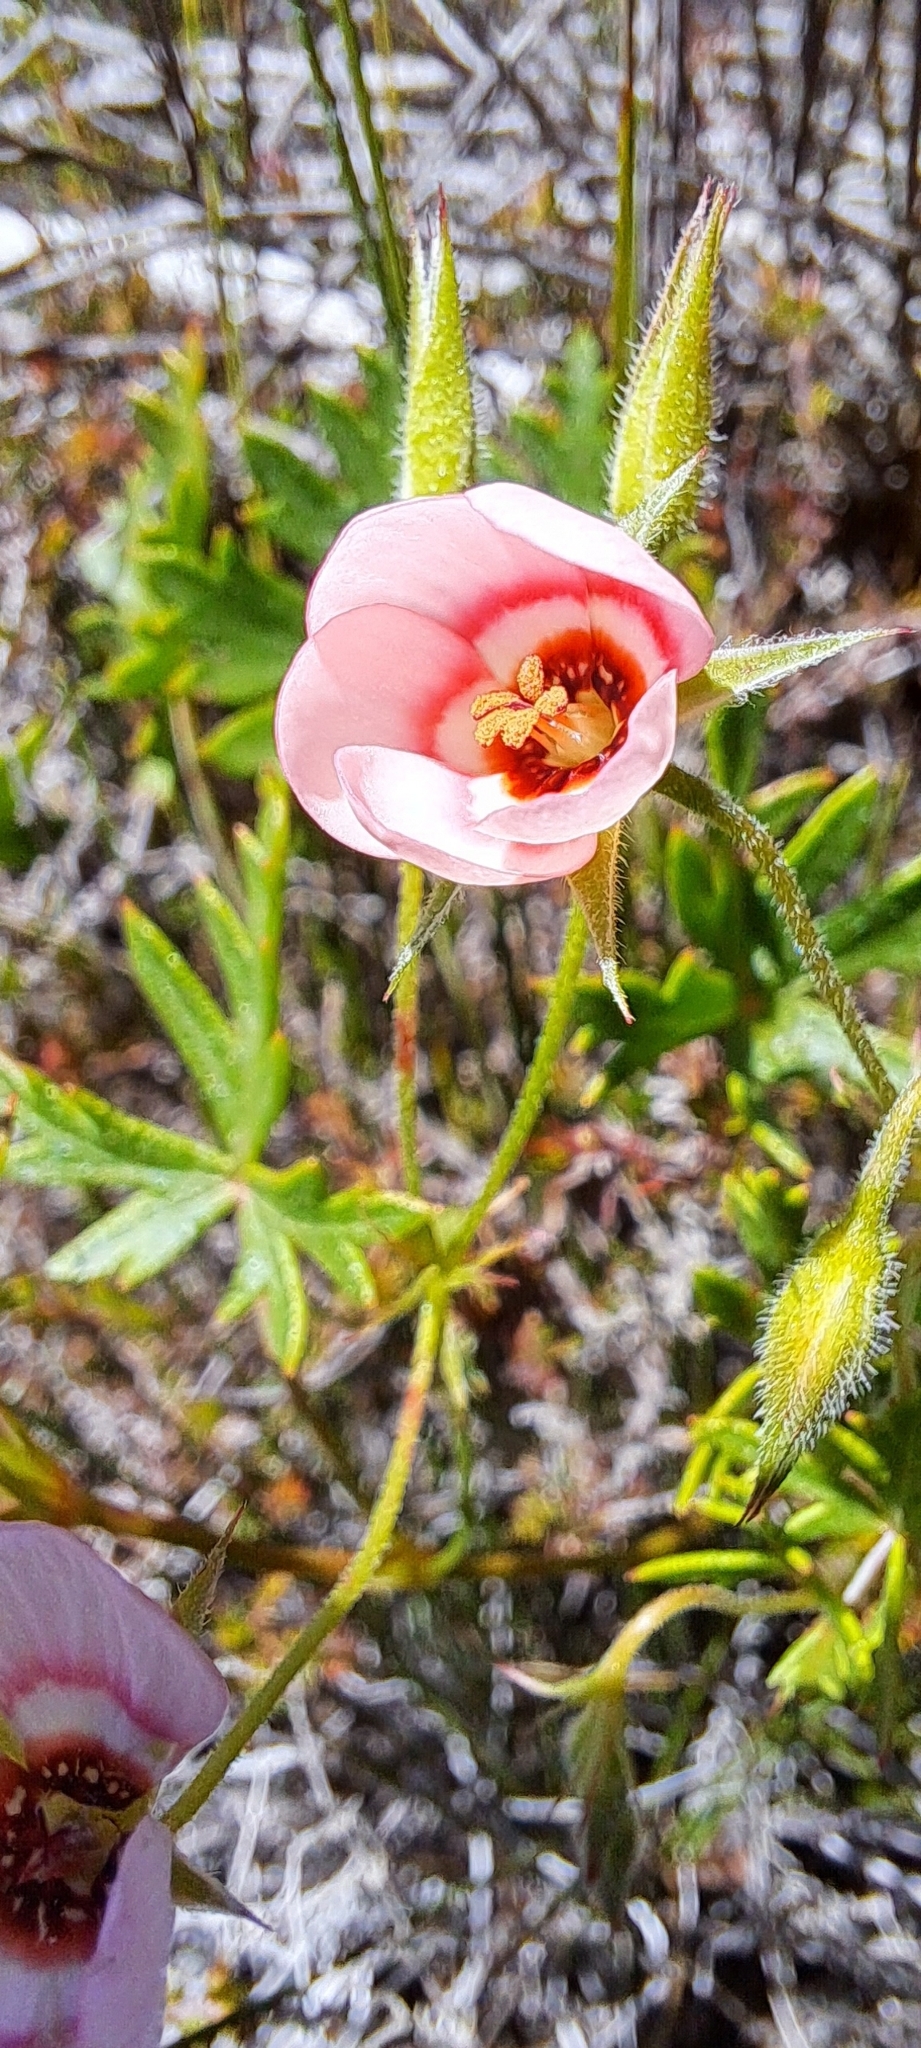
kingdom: Plantae
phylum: Tracheophyta
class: Magnoliopsida
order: Geraniales
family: Geraniaceae
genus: Pelargonium
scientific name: Pelargonium incarnatum
